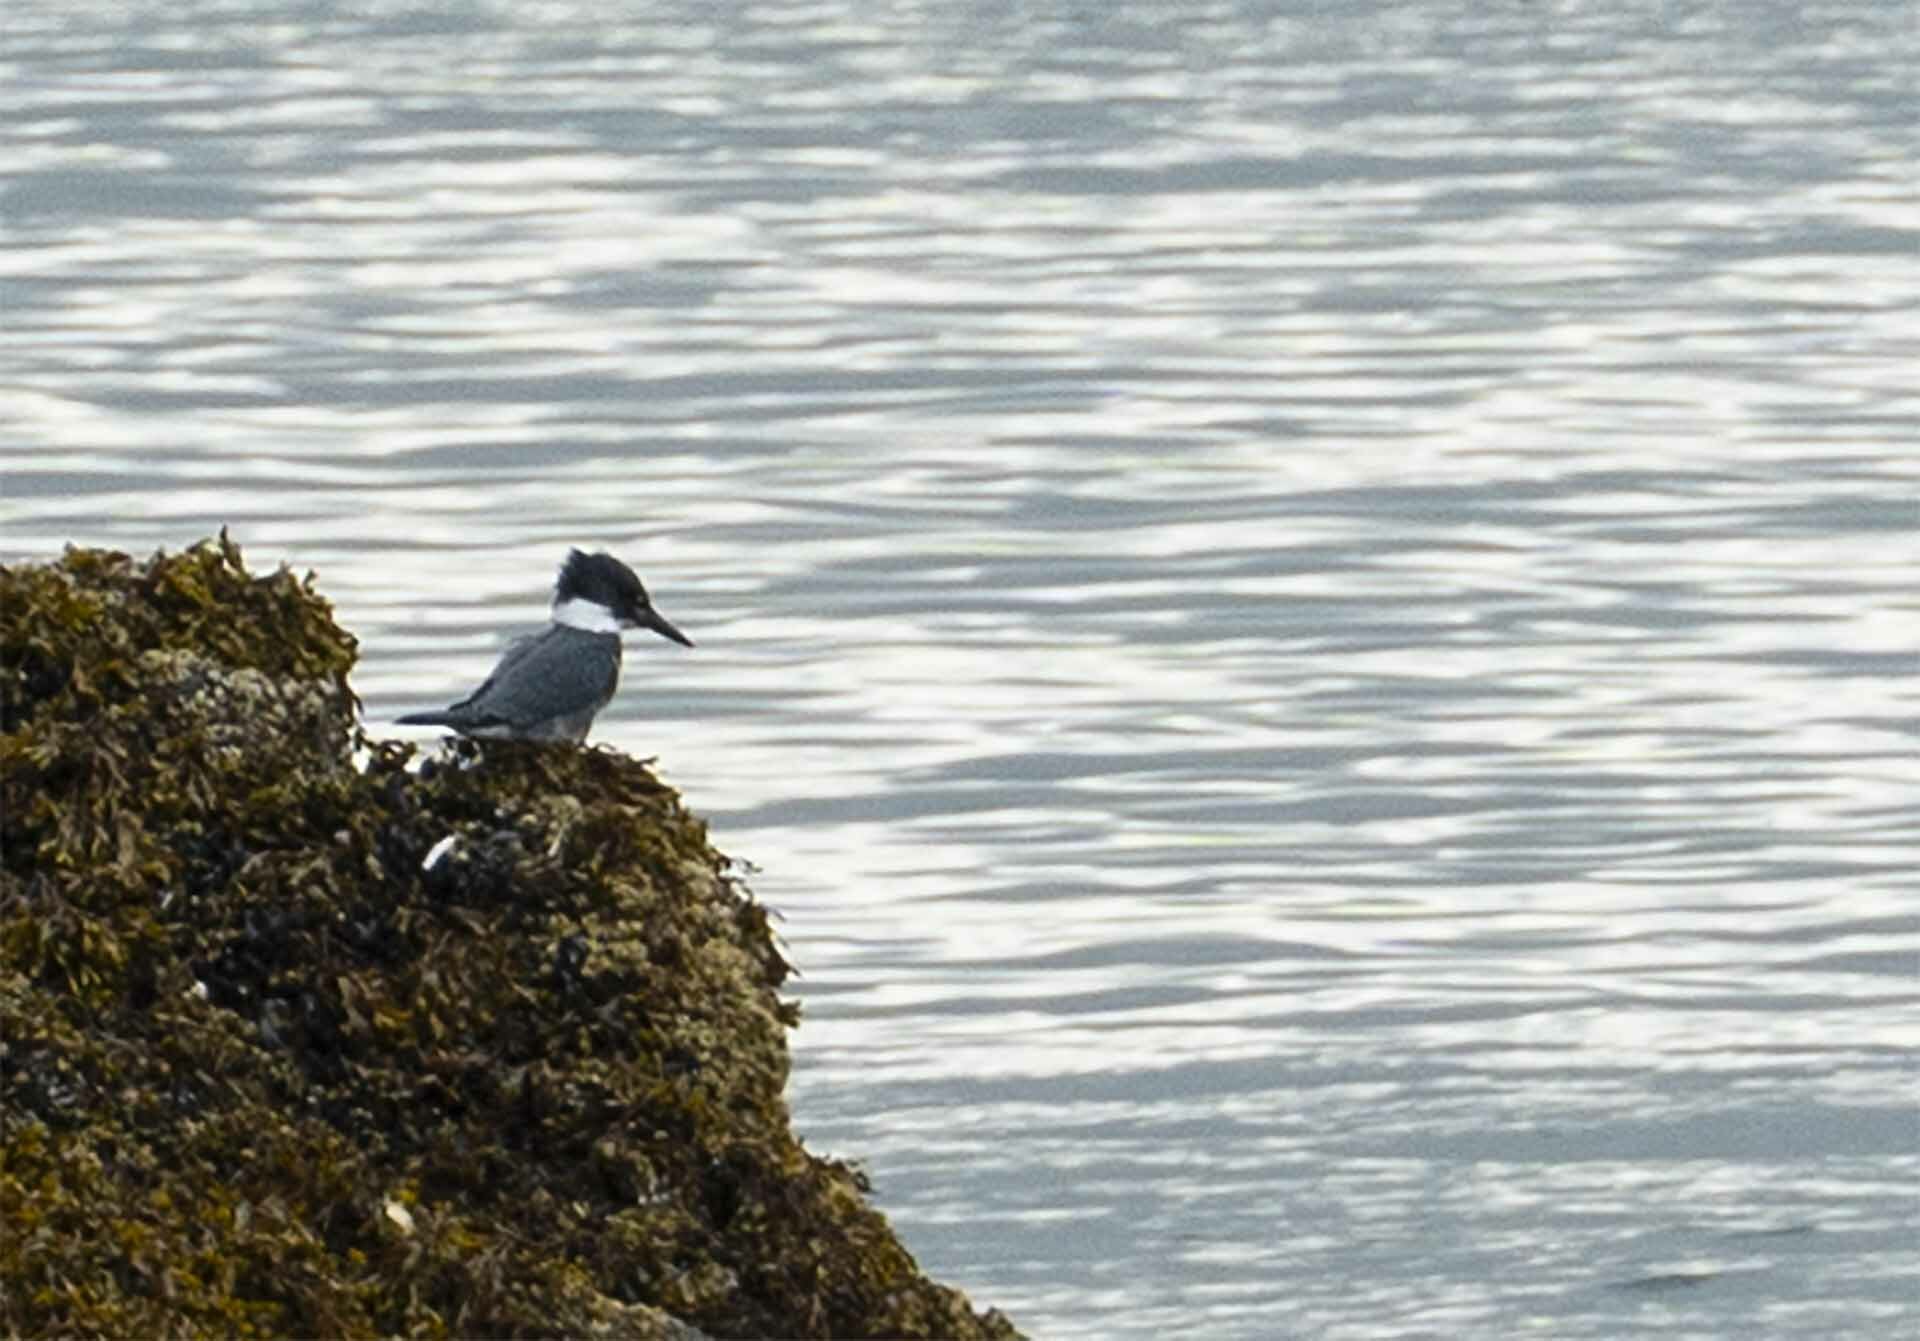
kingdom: Animalia
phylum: Chordata
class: Aves
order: Coraciiformes
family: Alcedinidae
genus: Megaceryle
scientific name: Megaceryle alcyon
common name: Belted kingfisher
